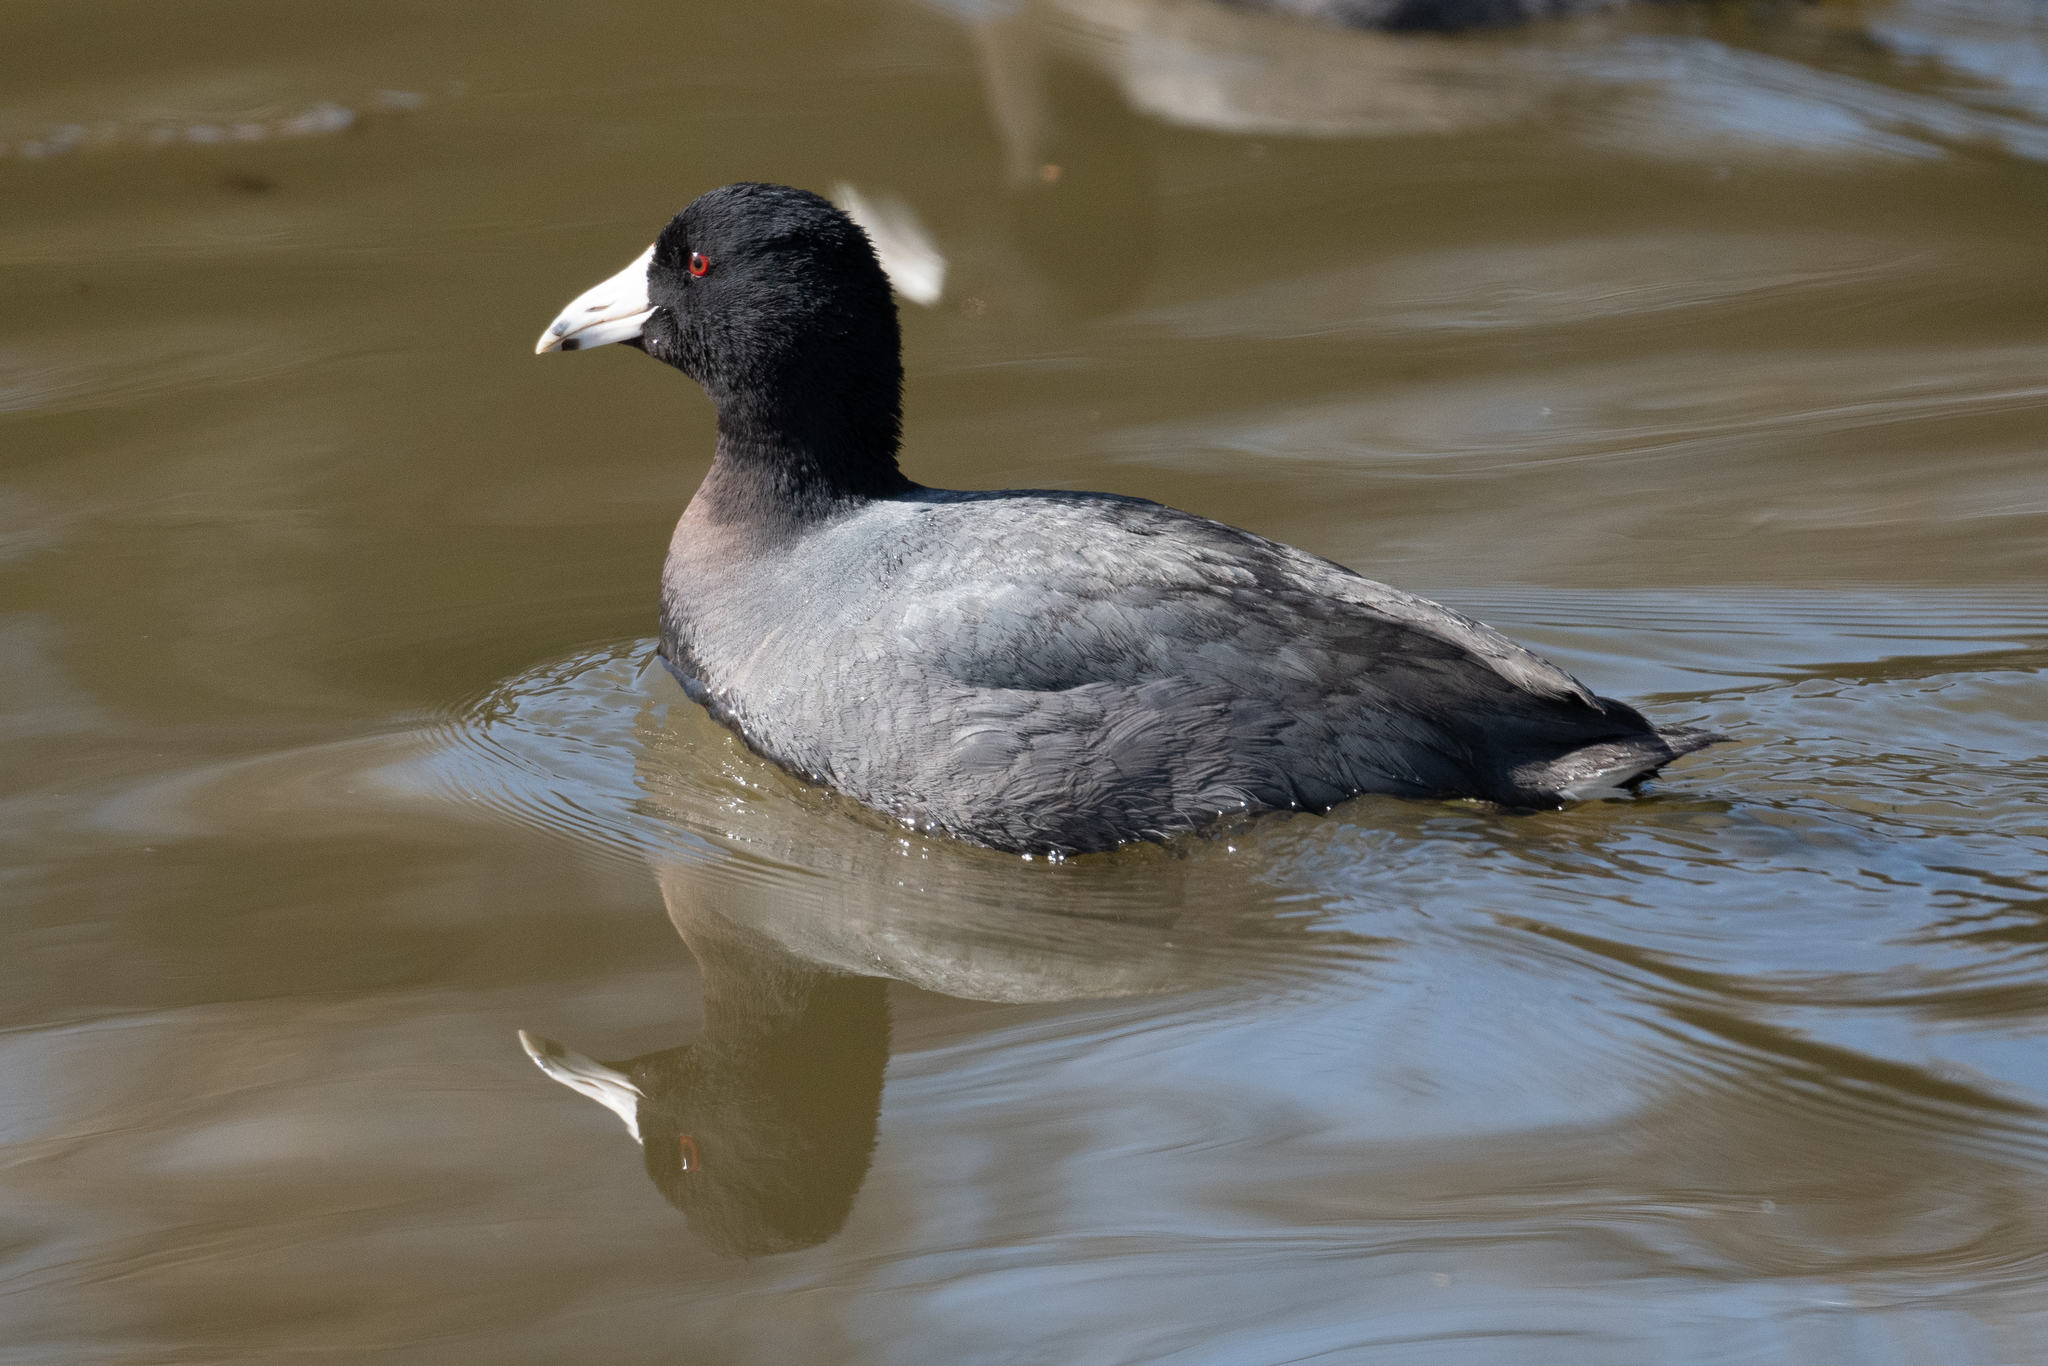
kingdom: Animalia
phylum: Chordata
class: Aves
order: Gruiformes
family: Rallidae
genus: Fulica
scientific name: Fulica americana
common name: American coot
